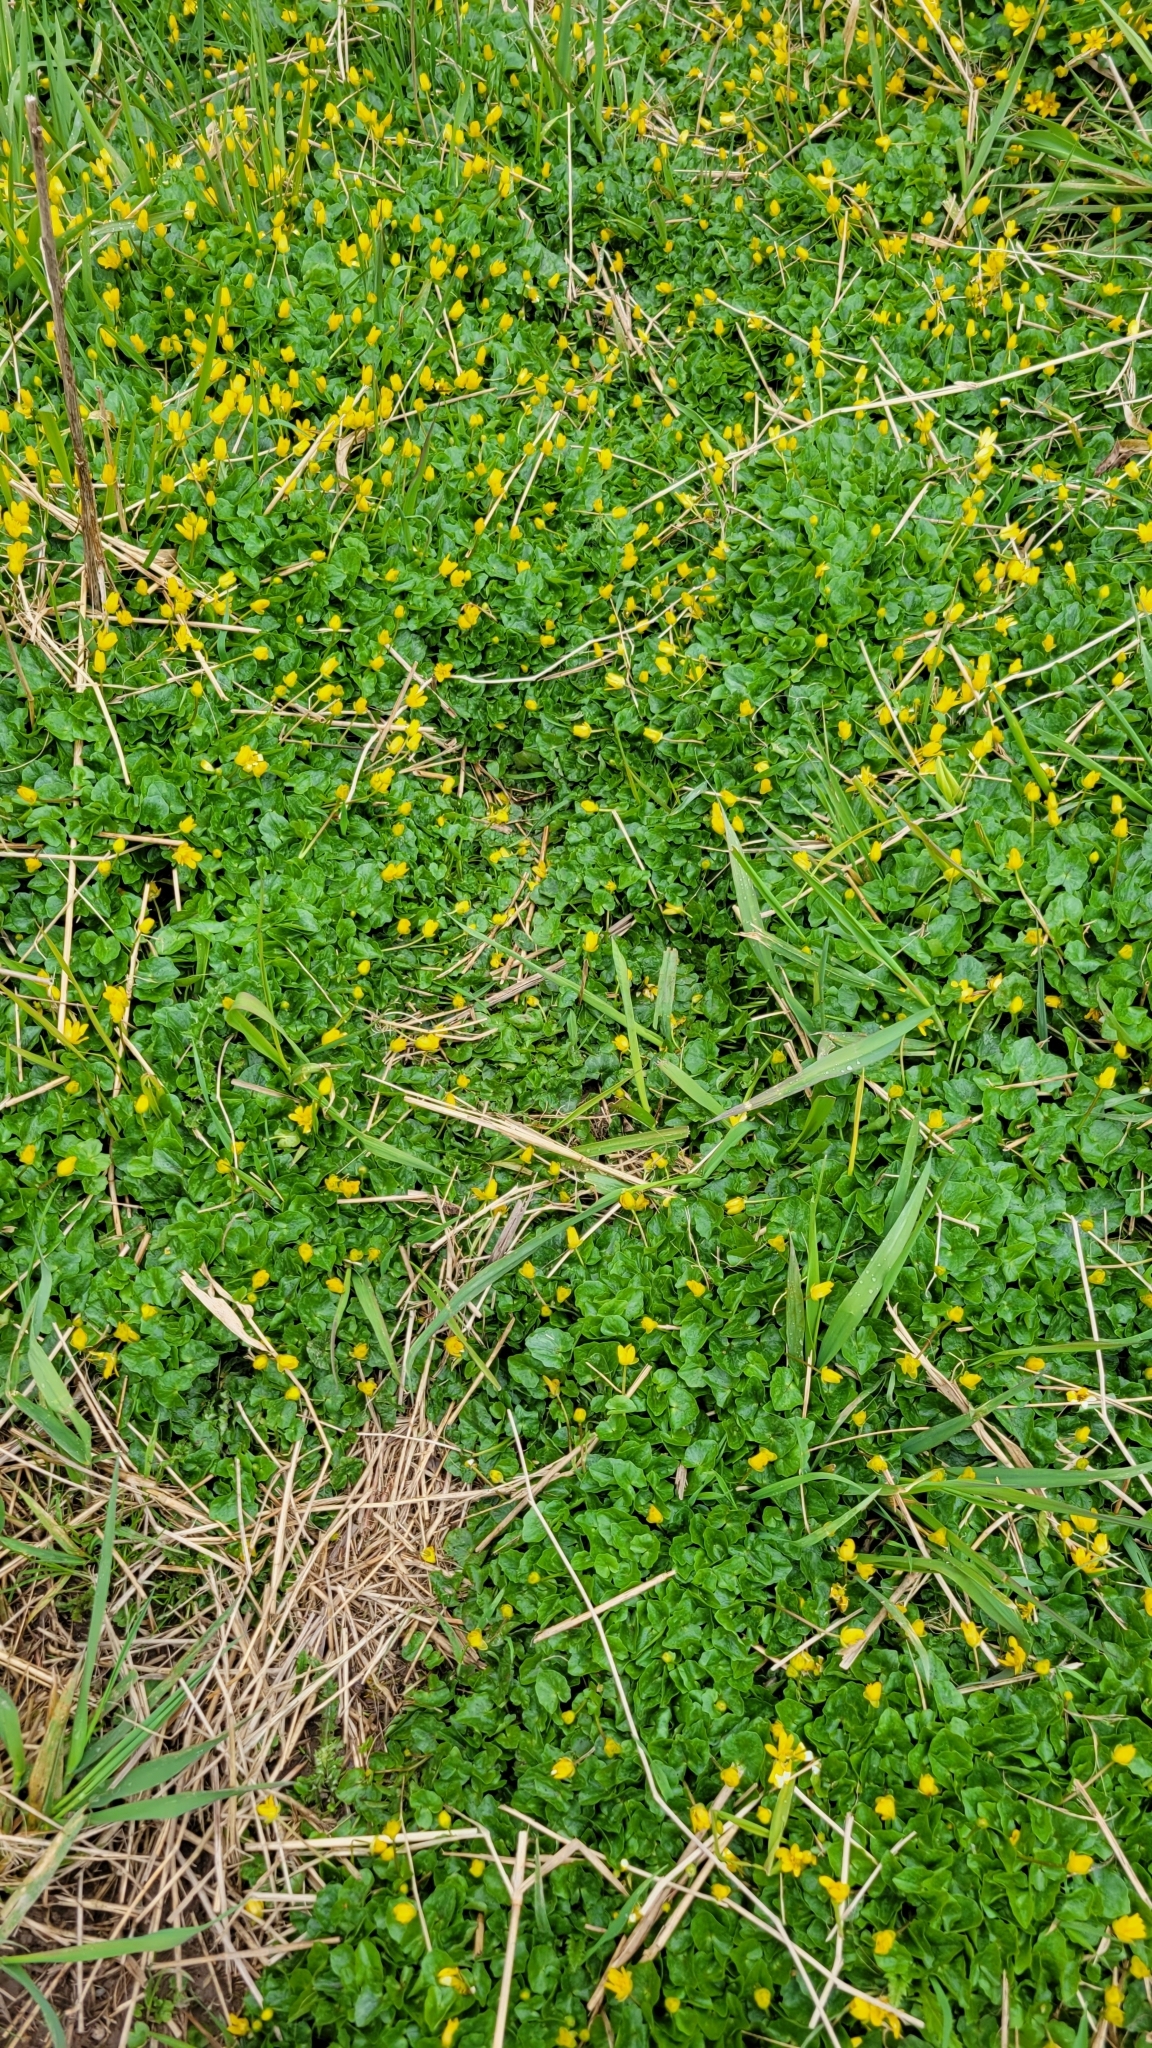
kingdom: Plantae
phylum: Tracheophyta
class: Magnoliopsida
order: Ranunculales
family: Ranunculaceae
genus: Ficaria
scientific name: Ficaria verna
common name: Lesser celandine
